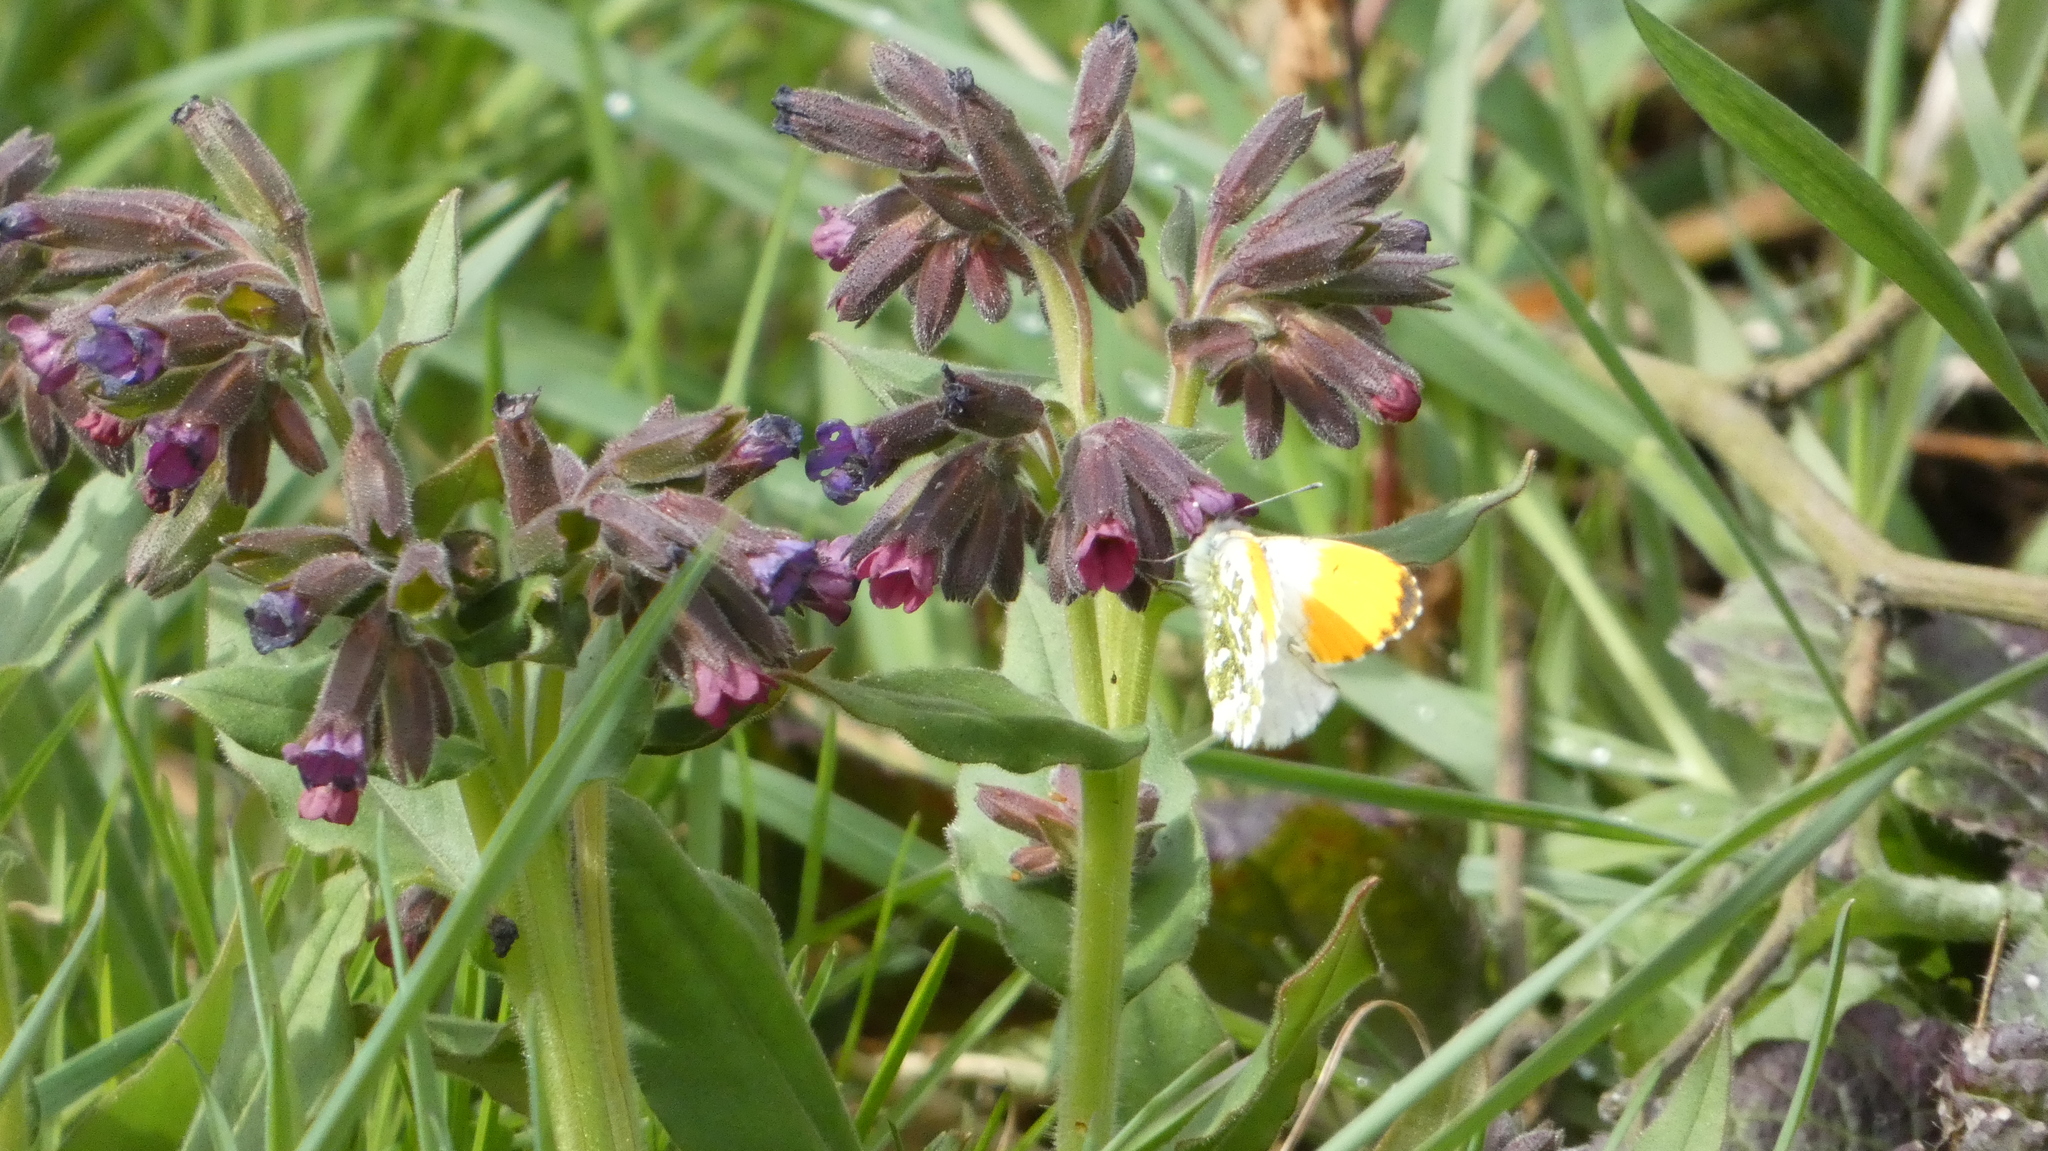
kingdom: Animalia
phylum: Arthropoda
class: Insecta
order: Lepidoptera
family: Pieridae
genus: Anthocharis
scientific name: Anthocharis cardamines
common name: Orange-tip
